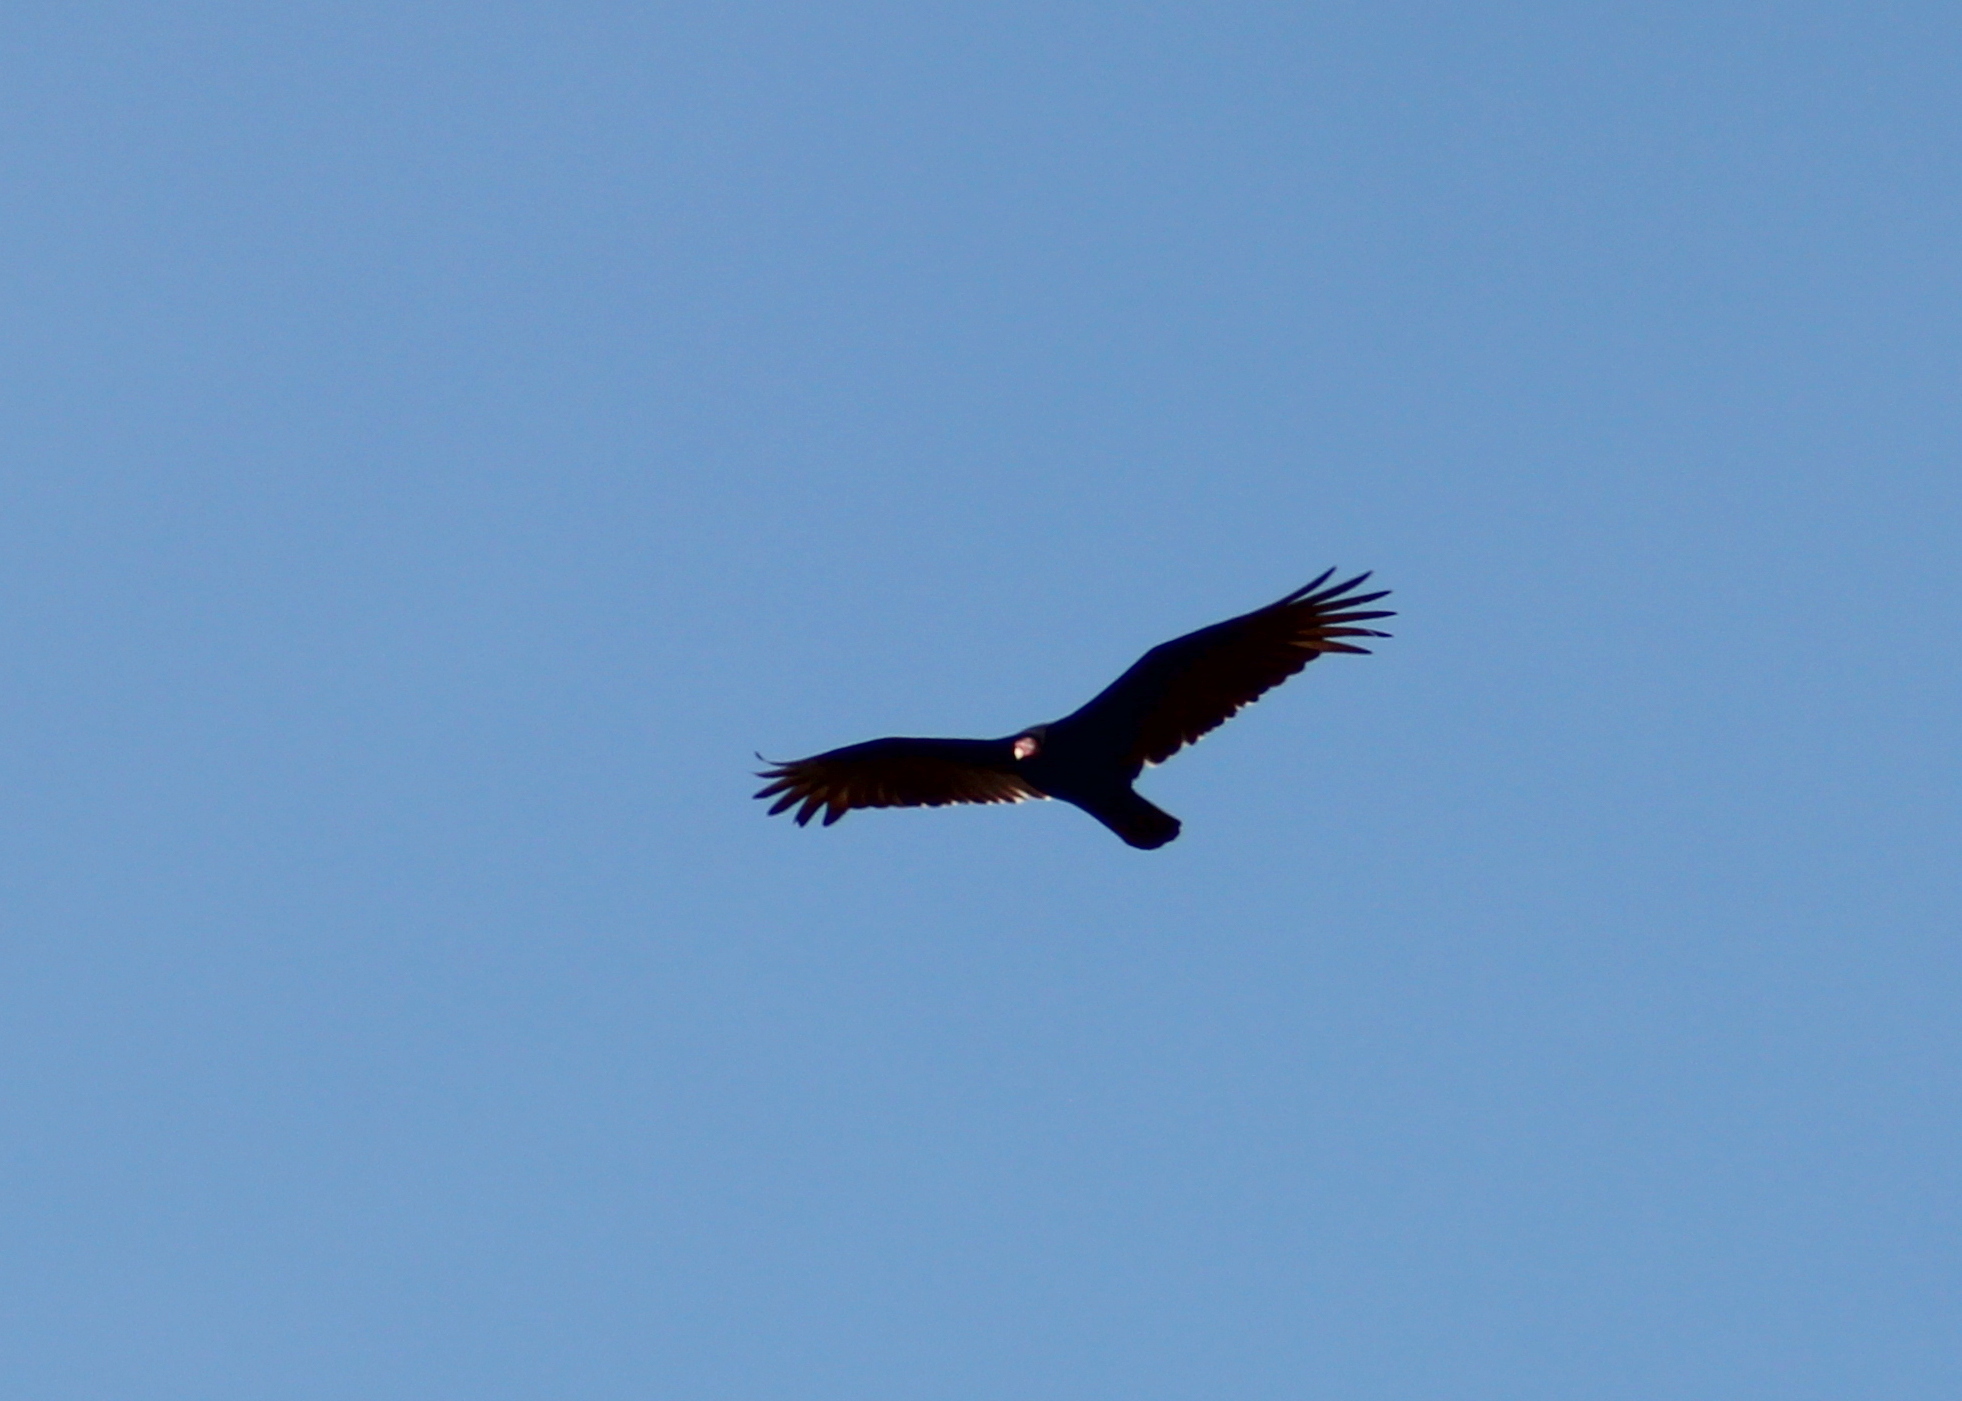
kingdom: Animalia
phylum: Chordata
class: Aves
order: Accipitriformes
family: Cathartidae
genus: Cathartes
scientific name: Cathartes aura
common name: Turkey vulture
